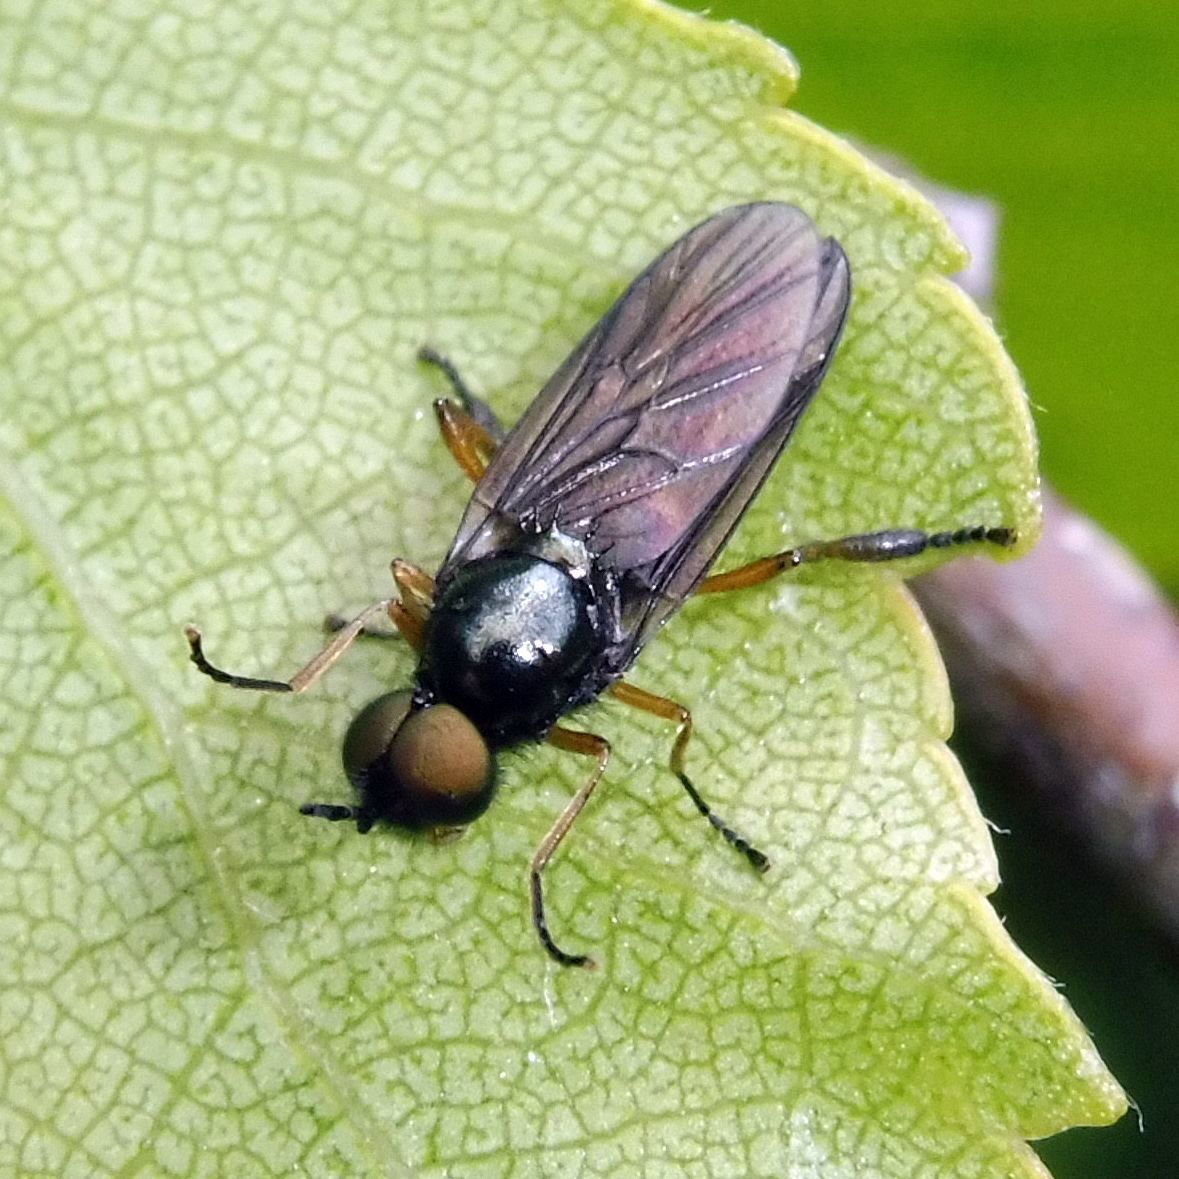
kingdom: Animalia
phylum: Arthropoda
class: Insecta
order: Diptera
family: Stratiomyidae
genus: Beris
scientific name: Beris chalybata
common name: Murky-legged black legionnaire
